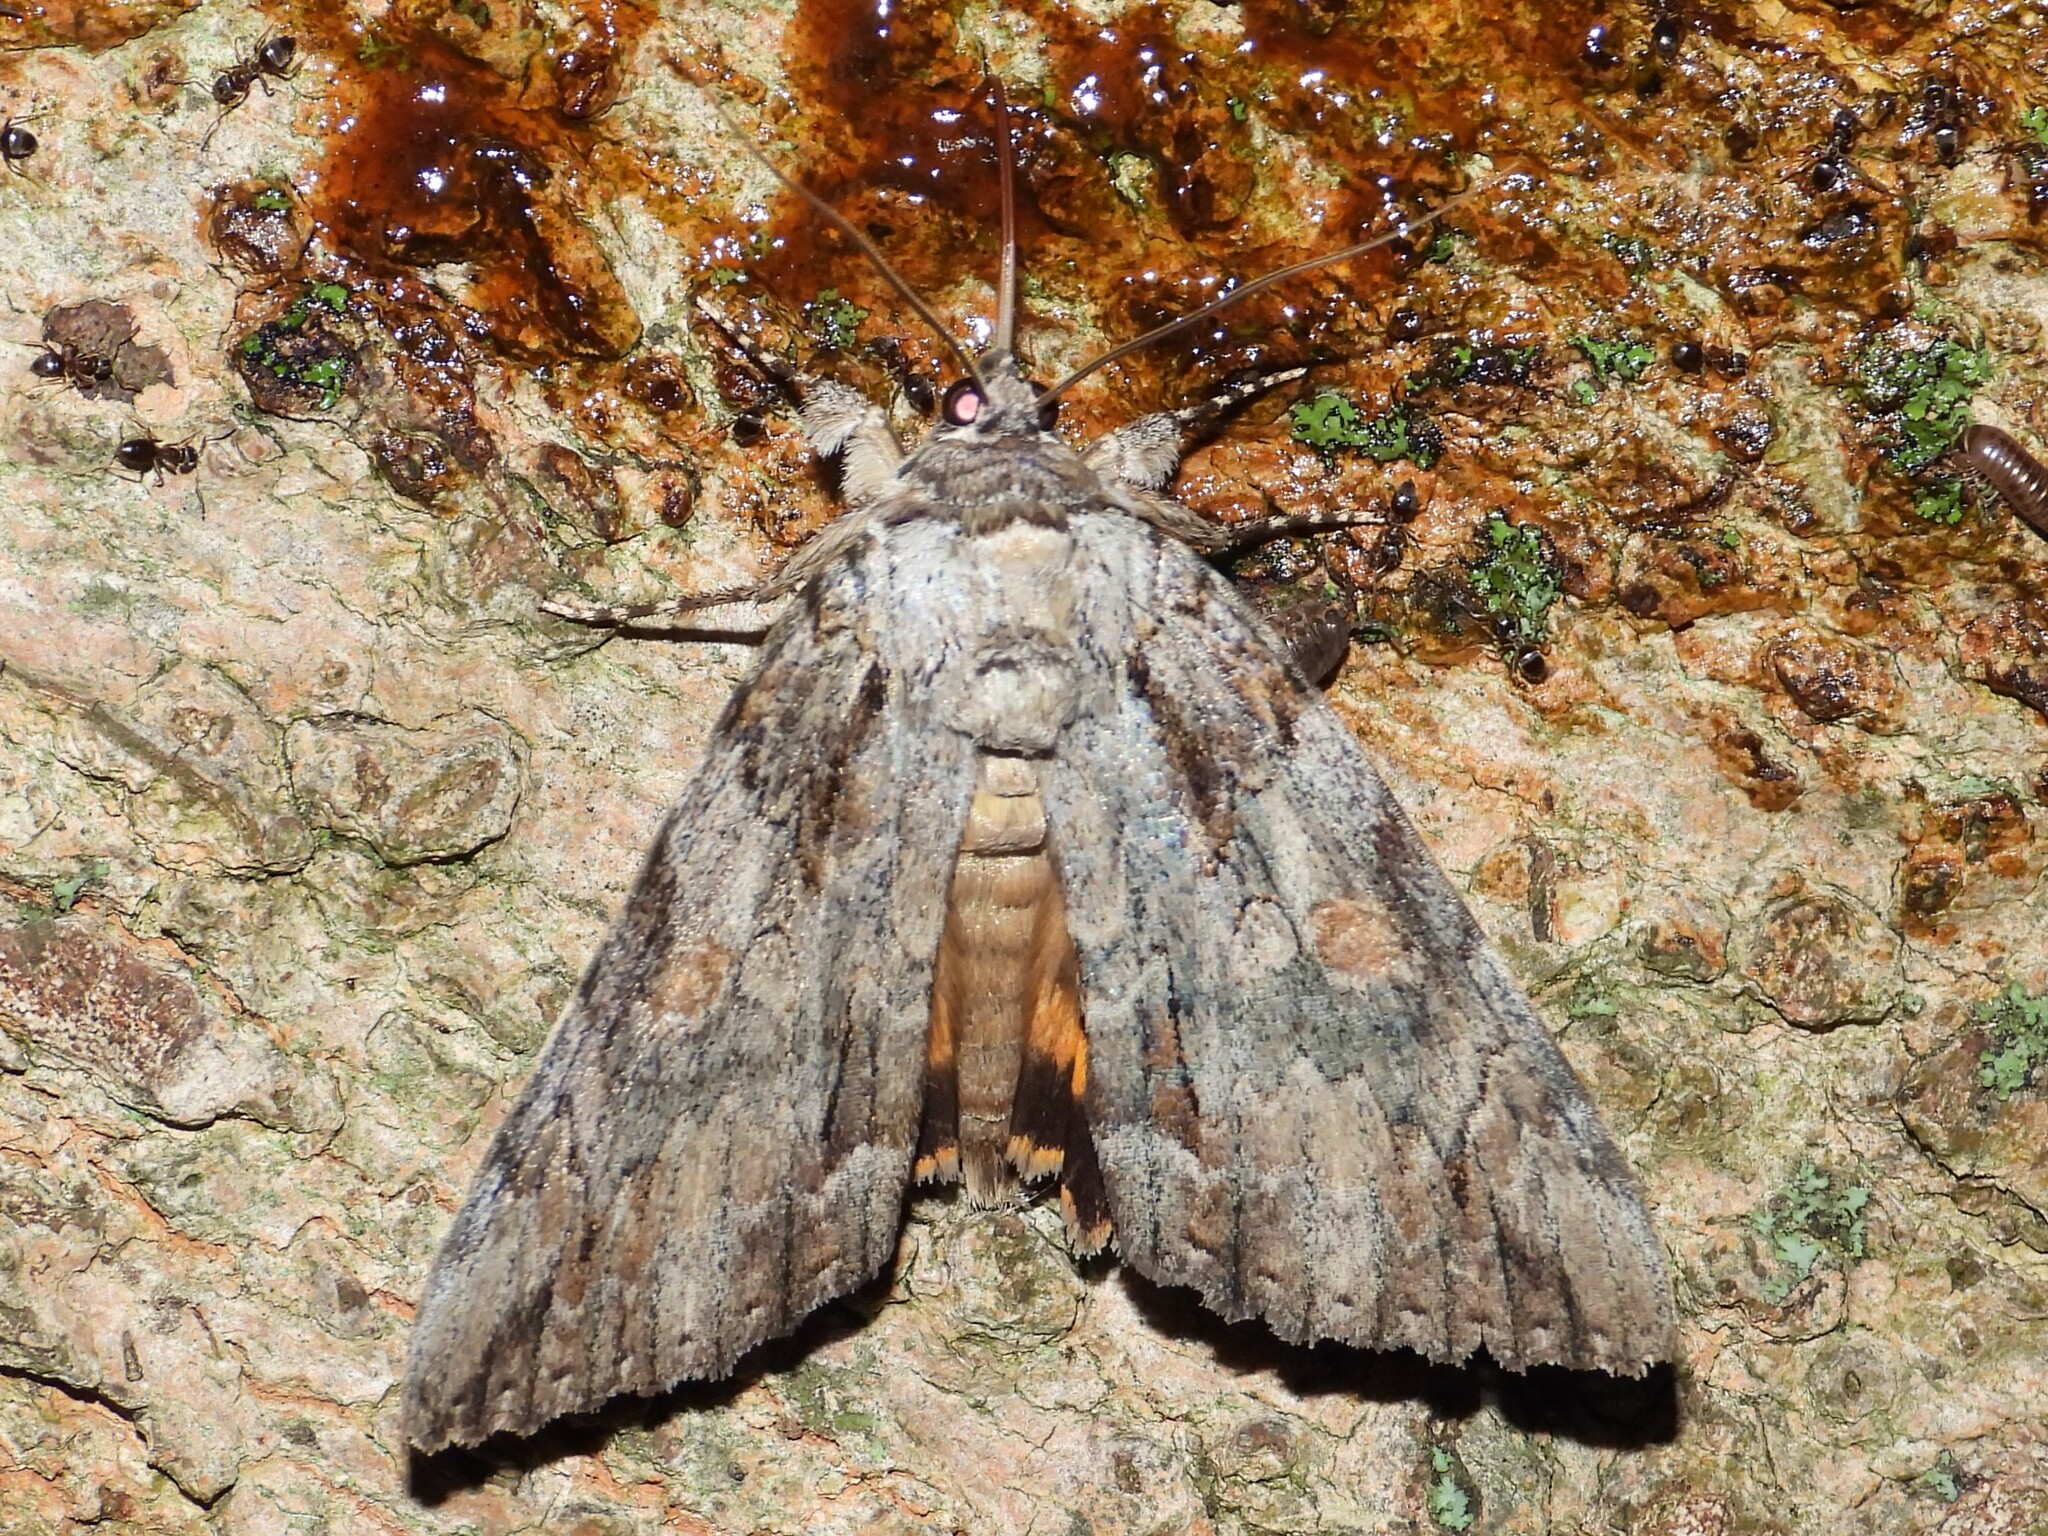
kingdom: Animalia
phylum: Arthropoda
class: Insecta
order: Lepidoptera
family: Erebidae
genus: Catocala
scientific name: Catocala neogama
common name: Bride underwing
